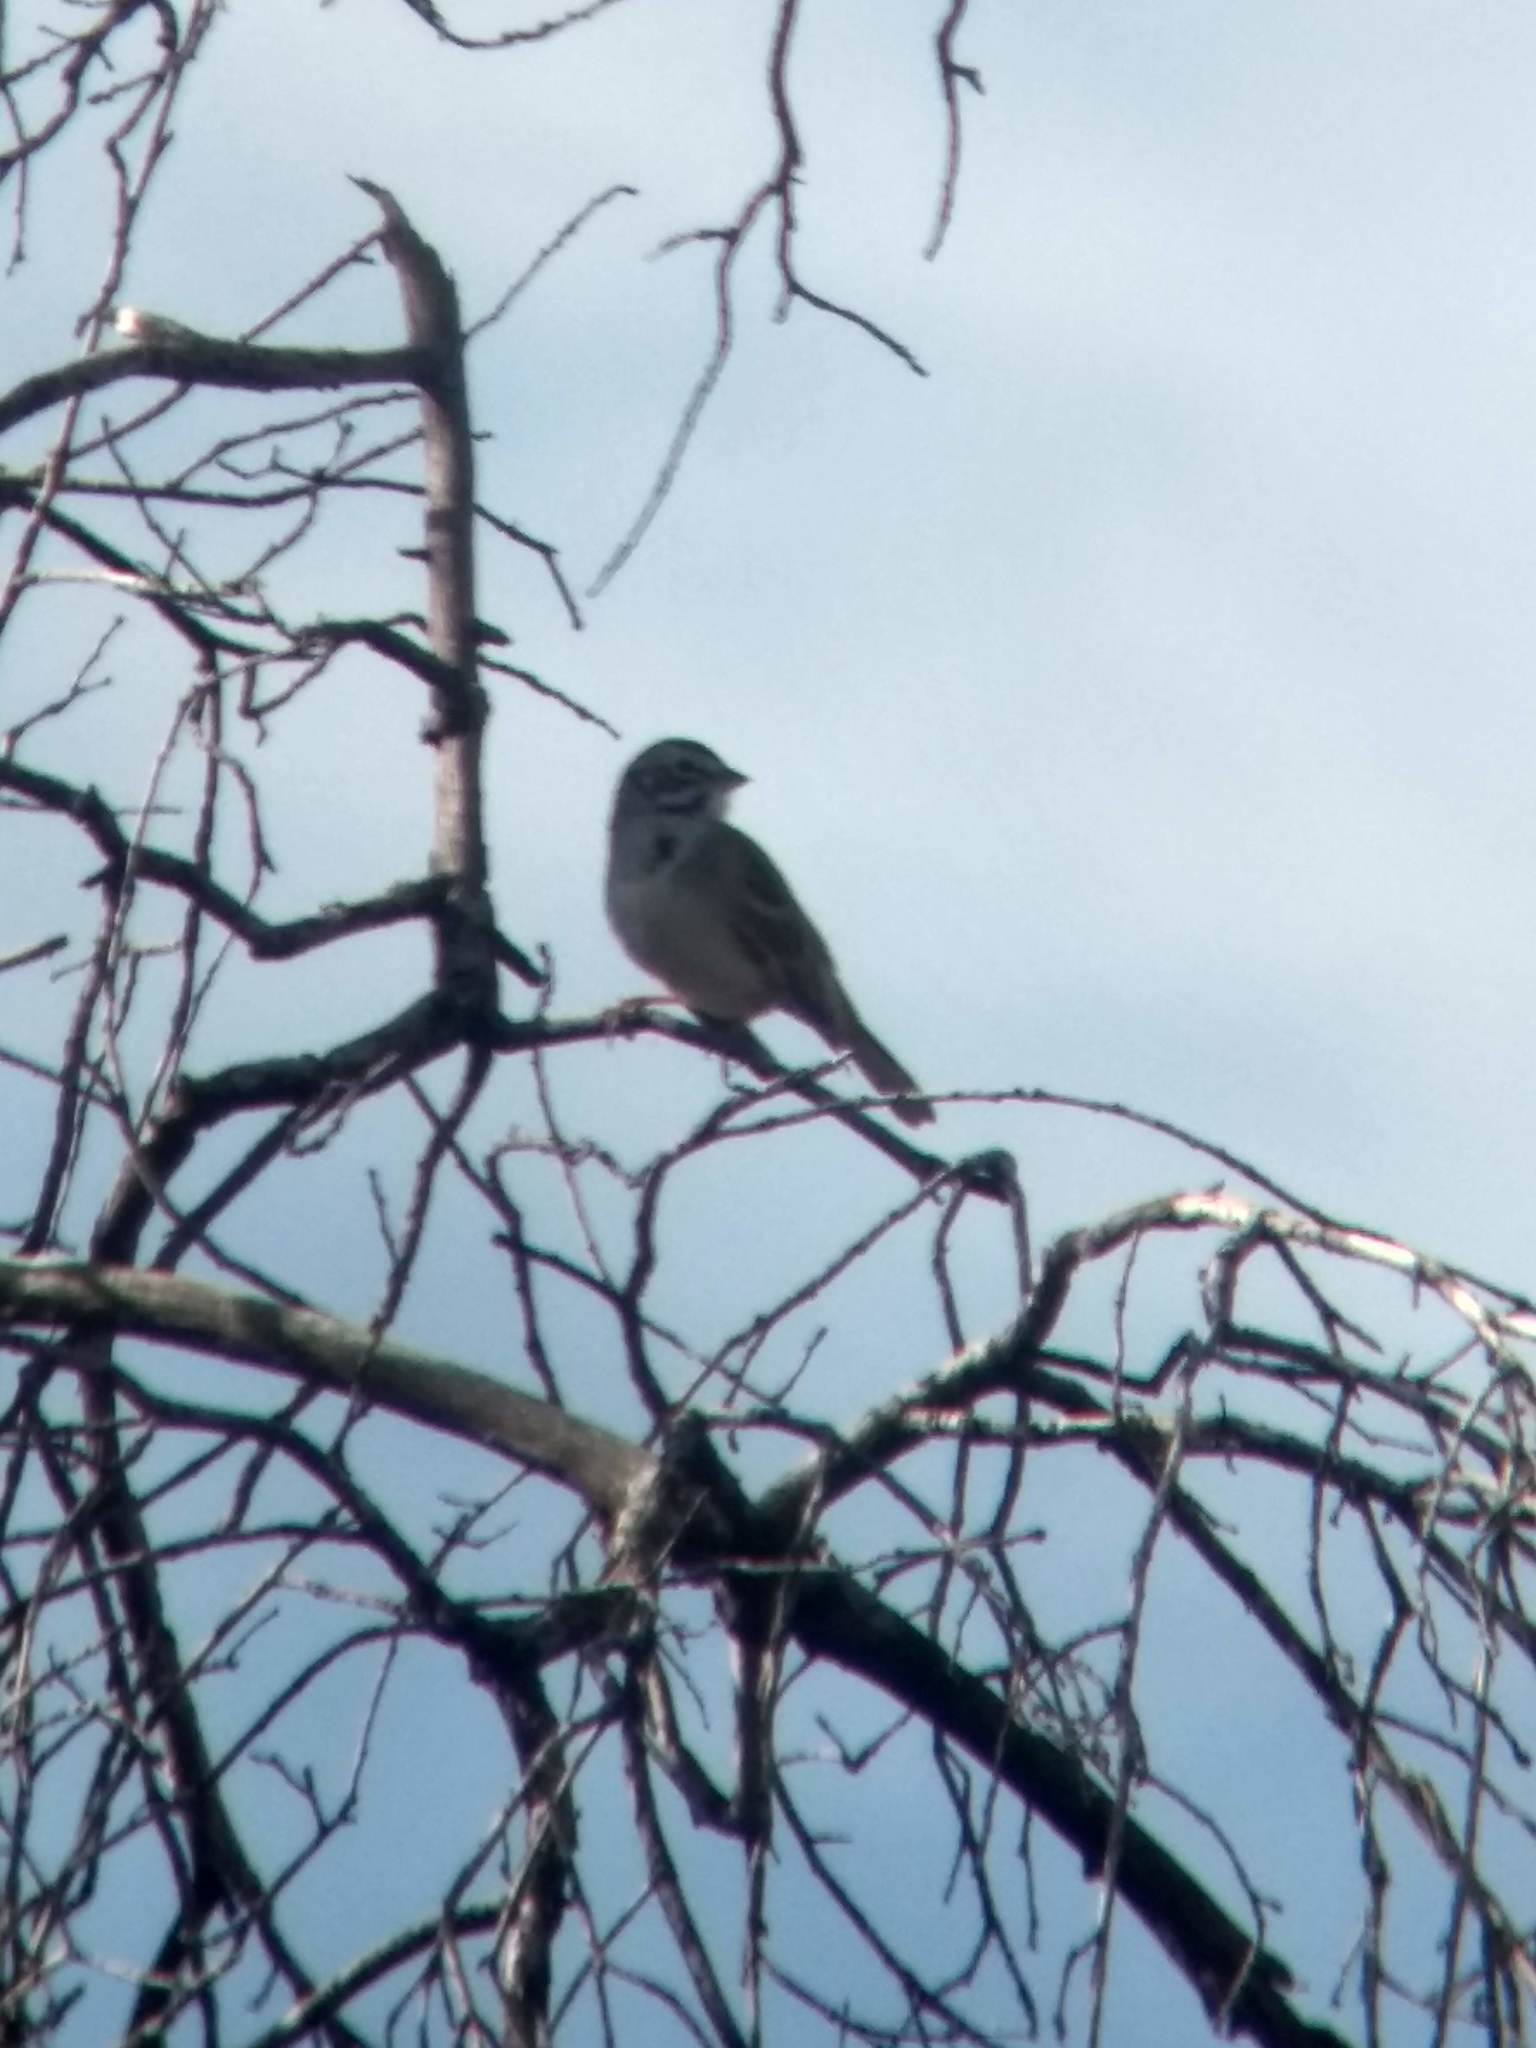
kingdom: Animalia
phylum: Chordata
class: Aves
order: Passeriformes
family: Passerellidae
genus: Chondestes
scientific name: Chondestes grammacus
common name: Lark sparrow
